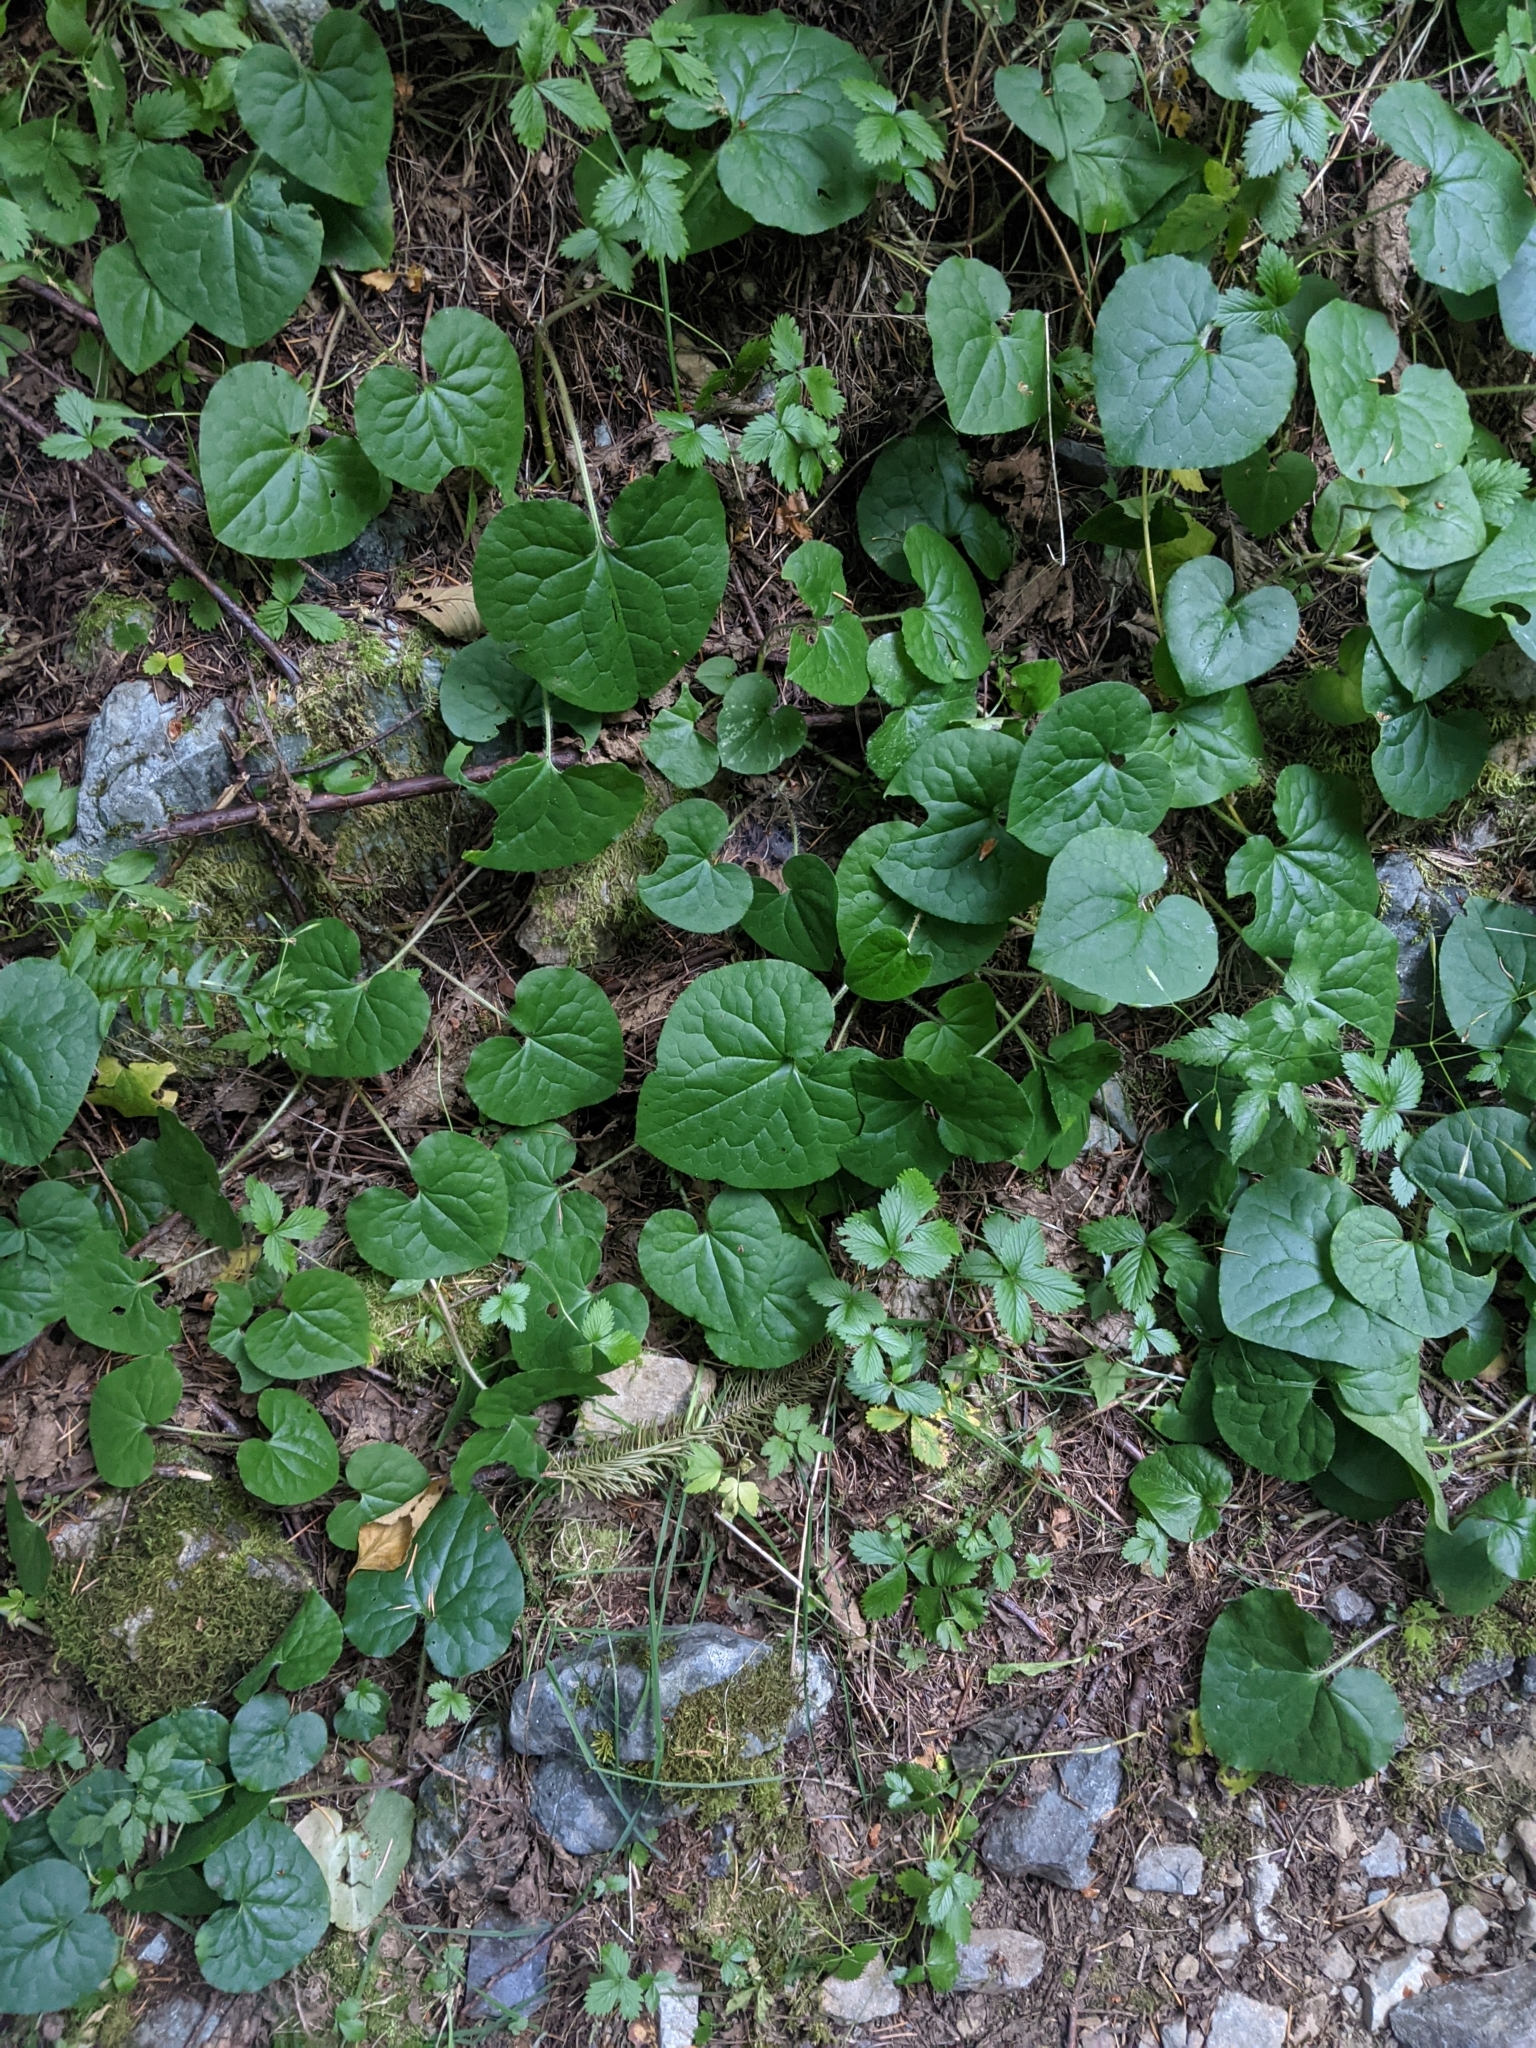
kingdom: Plantae
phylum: Tracheophyta
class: Magnoliopsida
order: Piperales
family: Aristolochiaceae
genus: Asarum
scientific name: Asarum caudatum
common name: Wild ginger
